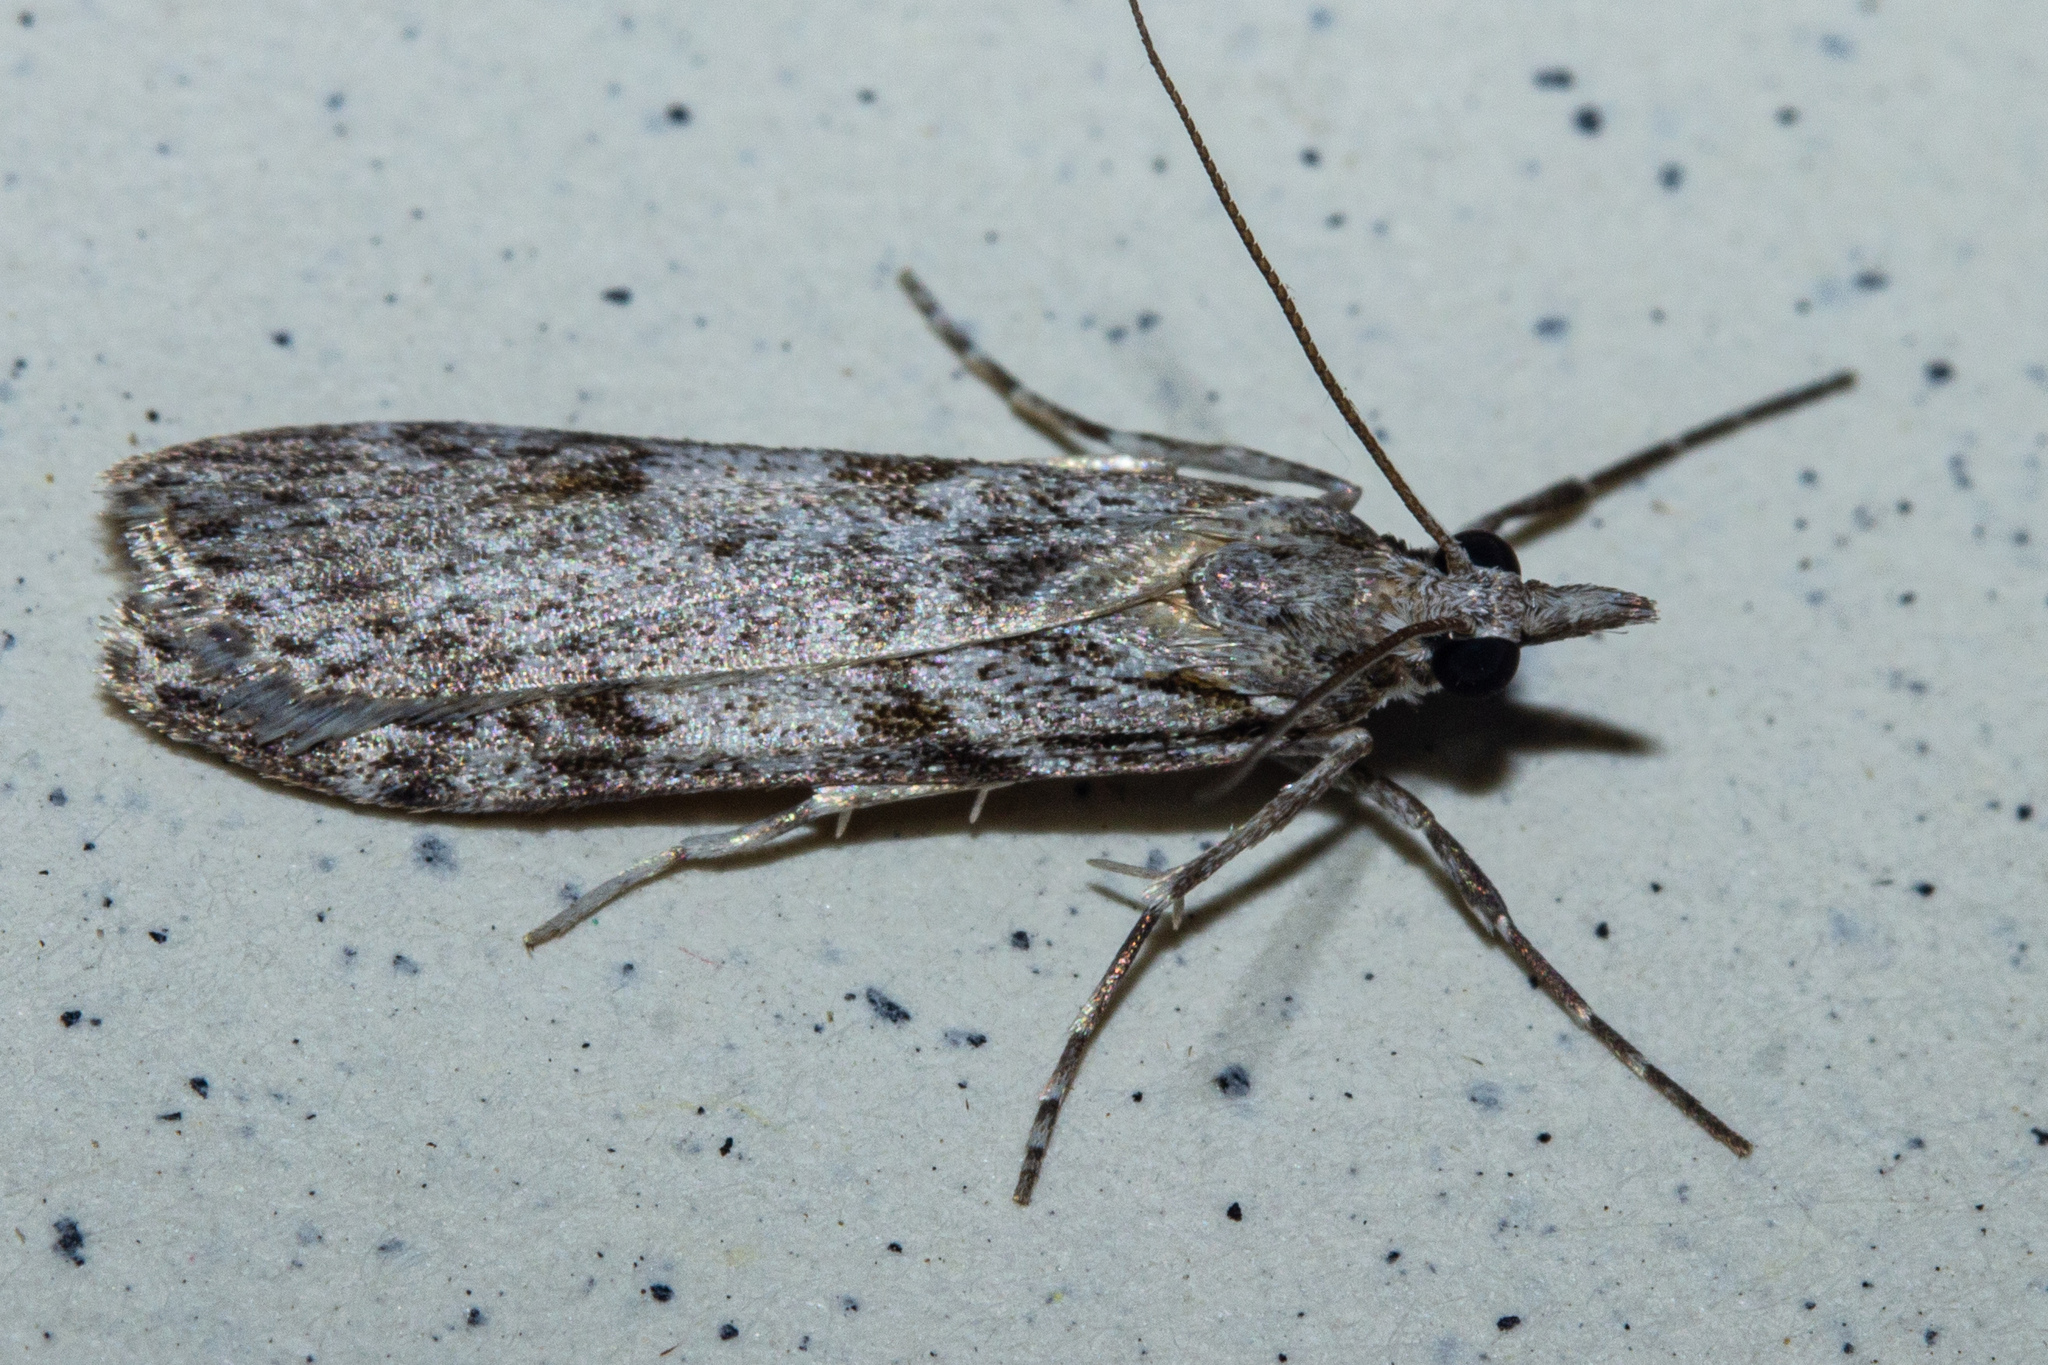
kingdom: Animalia
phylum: Arthropoda
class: Insecta
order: Lepidoptera
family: Crambidae
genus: Scoparia
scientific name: Scoparia halopis
